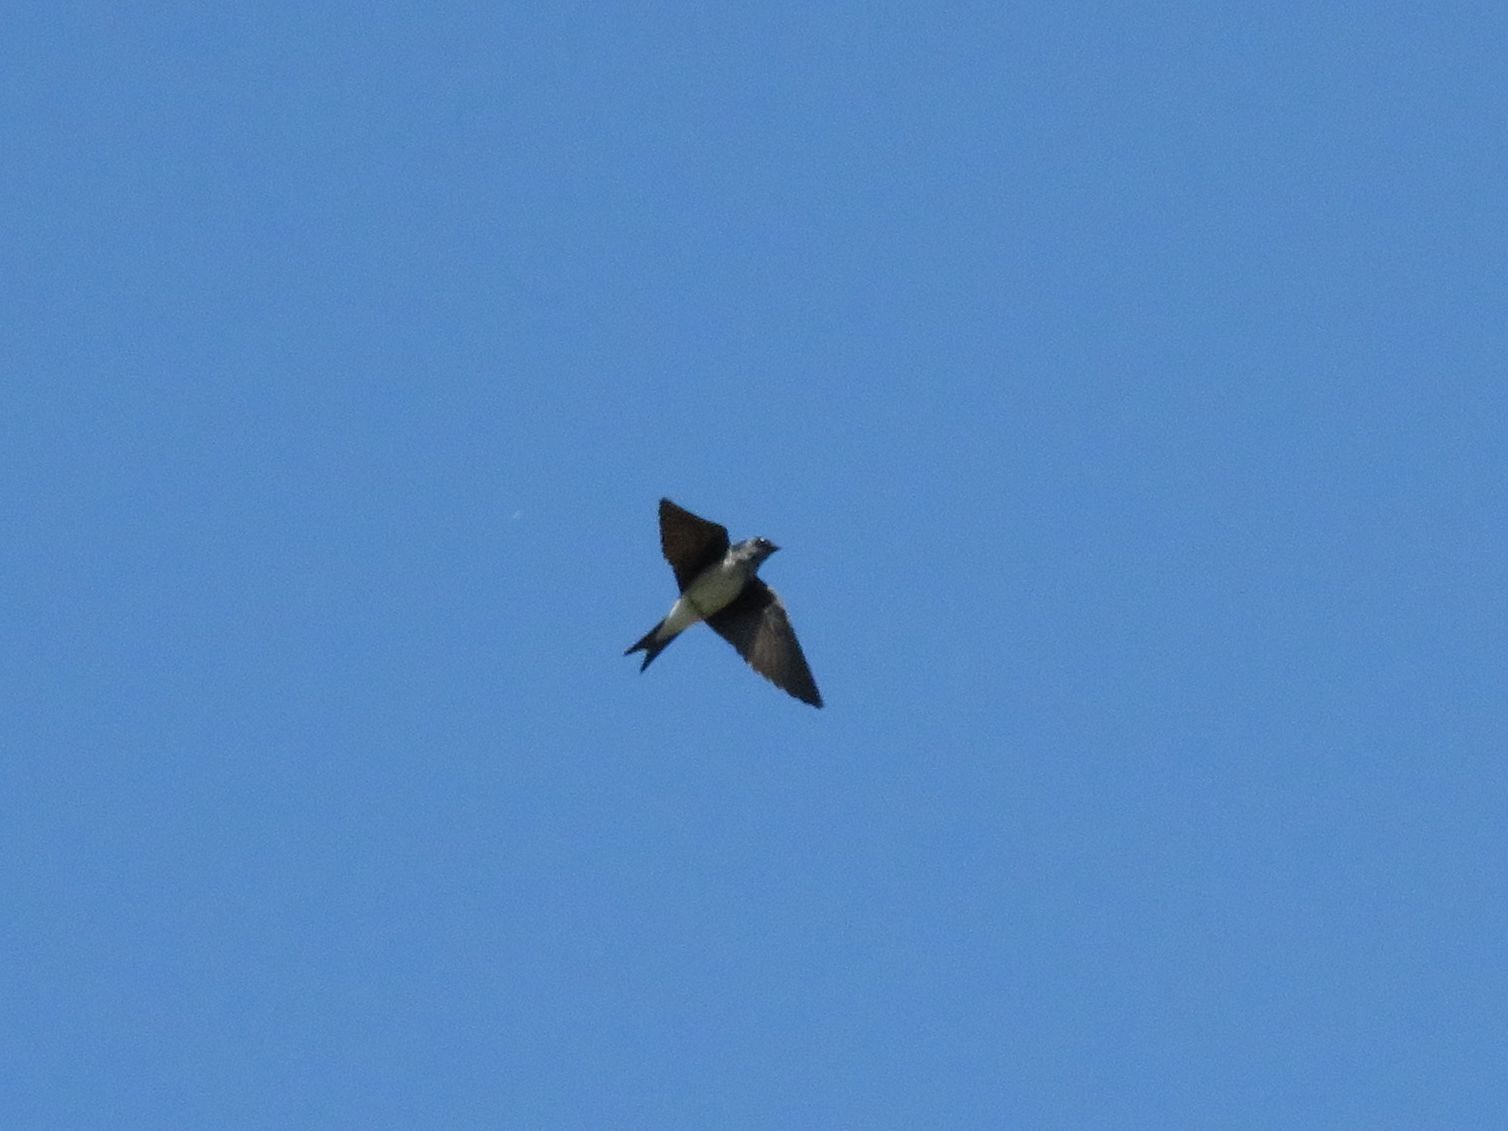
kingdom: Animalia
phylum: Chordata
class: Aves
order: Passeriformes
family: Hirundinidae
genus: Progne
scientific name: Progne chalybea
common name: Grey-breasted martin
